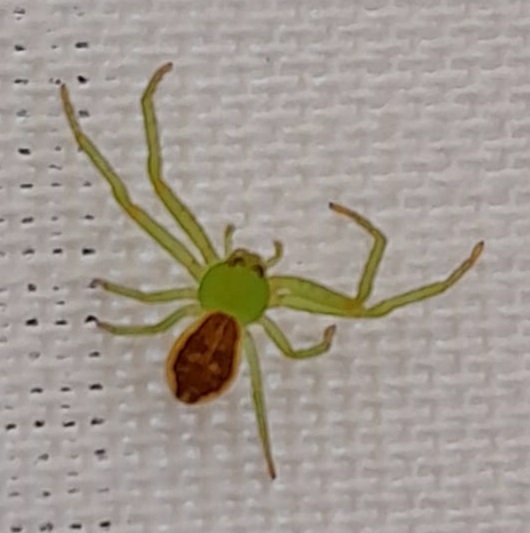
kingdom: Animalia
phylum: Arthropoda
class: Arachnida
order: Araneae
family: Thomisidae
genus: Diaea
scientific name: Diaea dorsata
